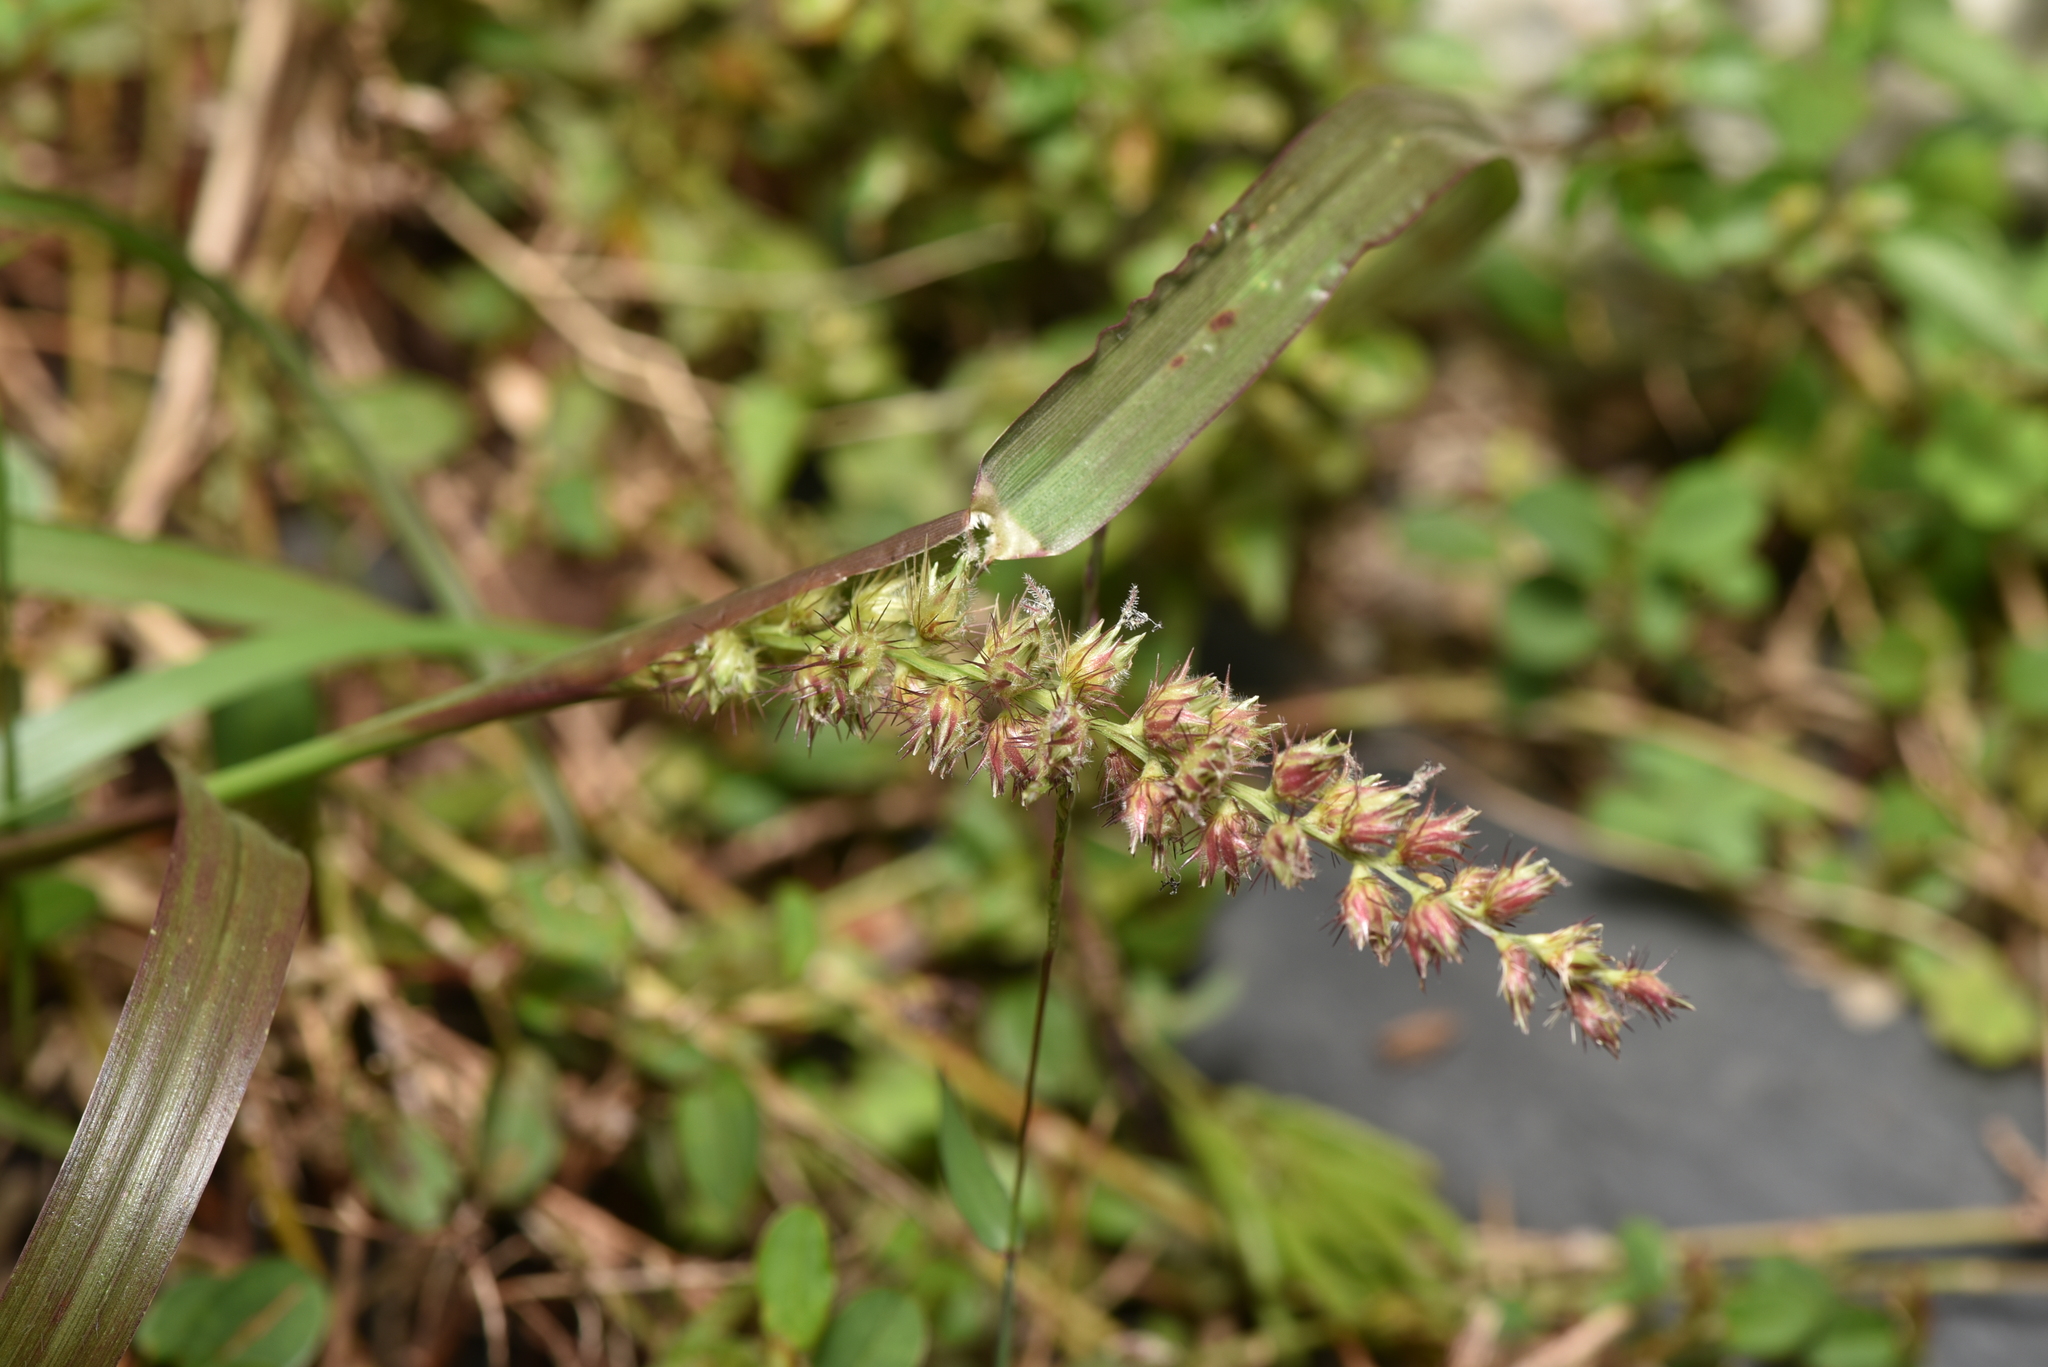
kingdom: Plantae
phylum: Tracheophyta
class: Liliopsida
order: Poales
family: Poaceae
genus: Cenchrus
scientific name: Cenchrus echinatus
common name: Southern sandbur
